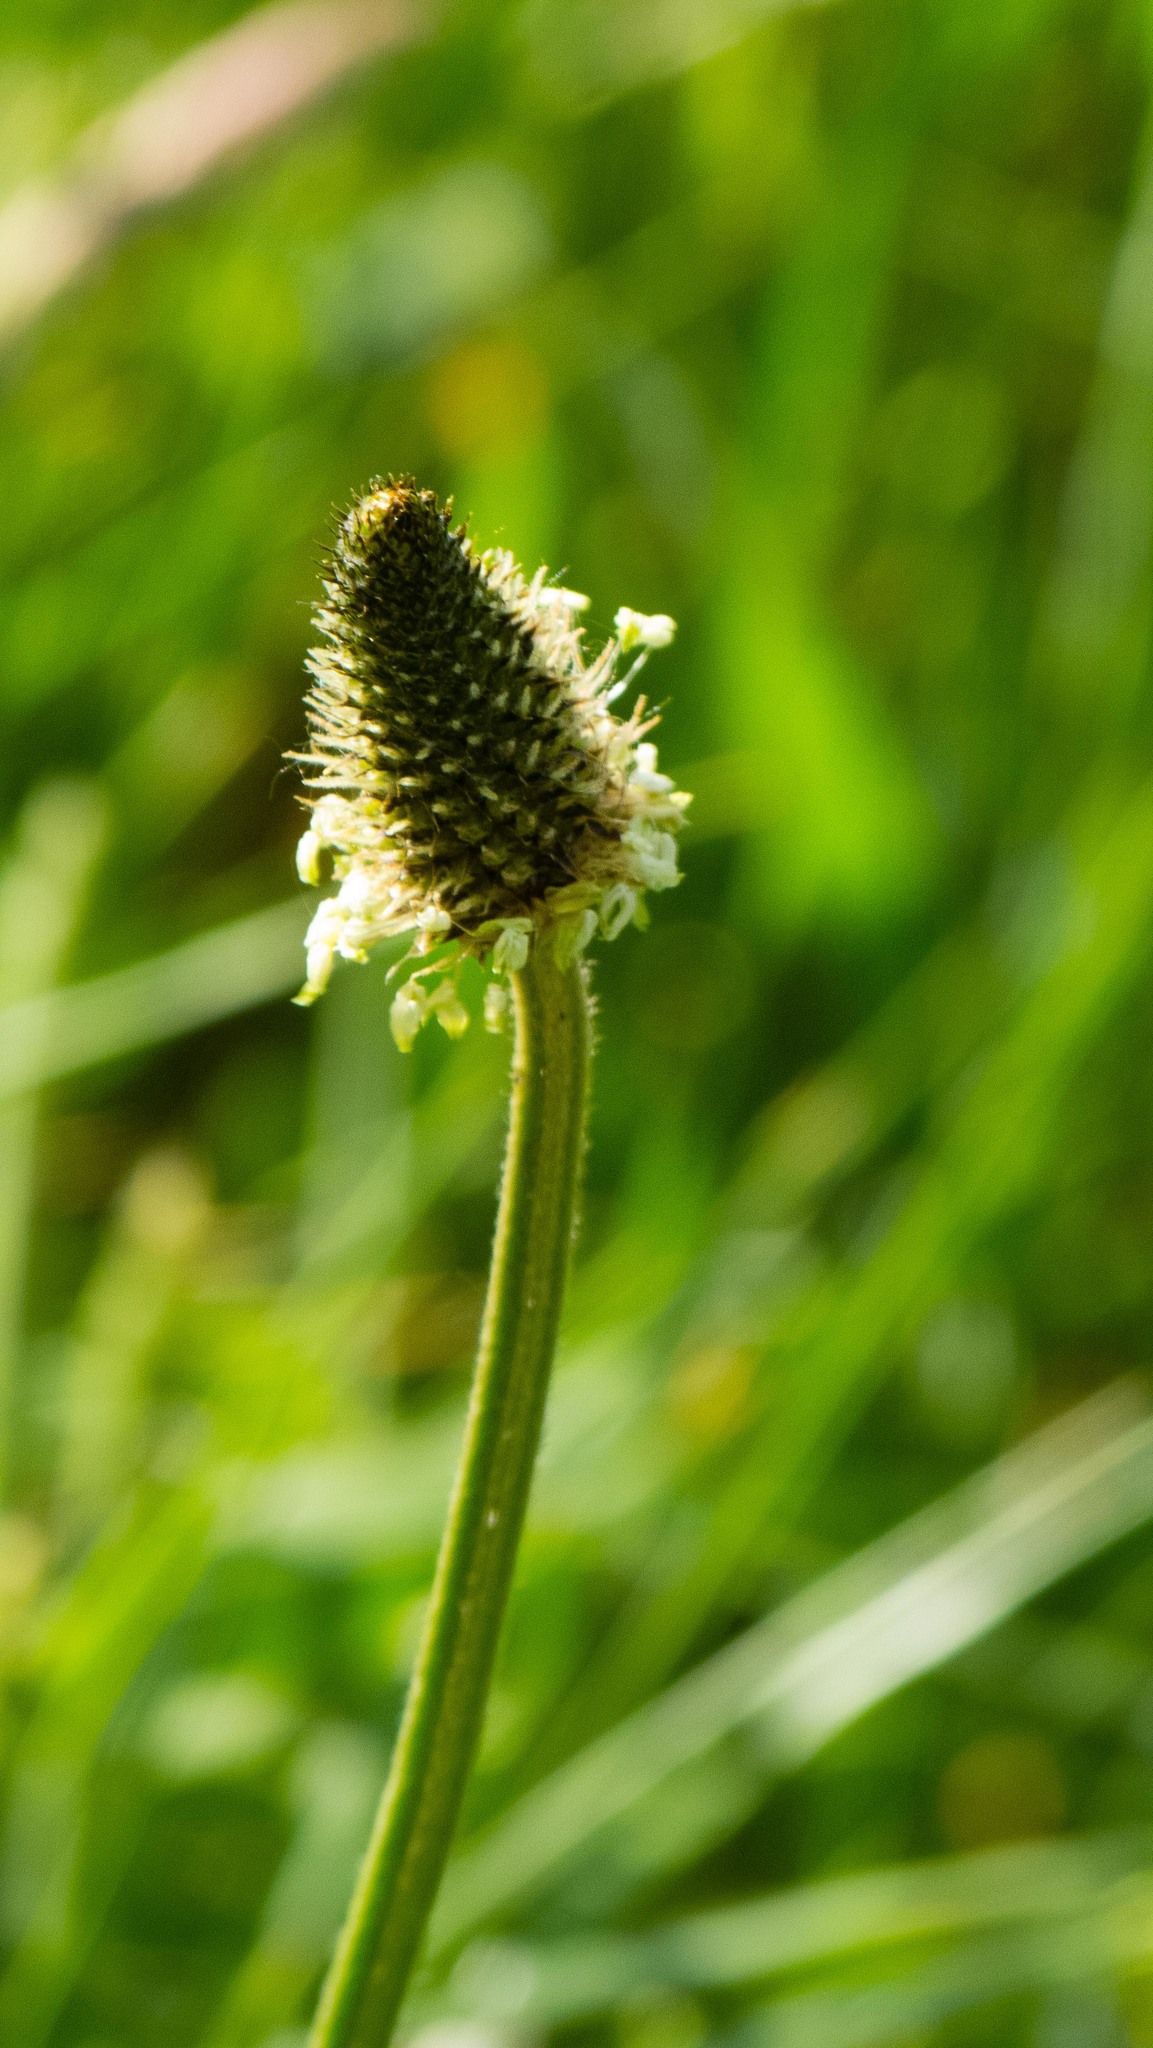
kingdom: Plantae
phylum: Tracheophyta
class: Magnoliopsida
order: Lamiales
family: Plantaginaceae
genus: Plantago
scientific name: Plantago lanceolata
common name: Ribwort plantain
